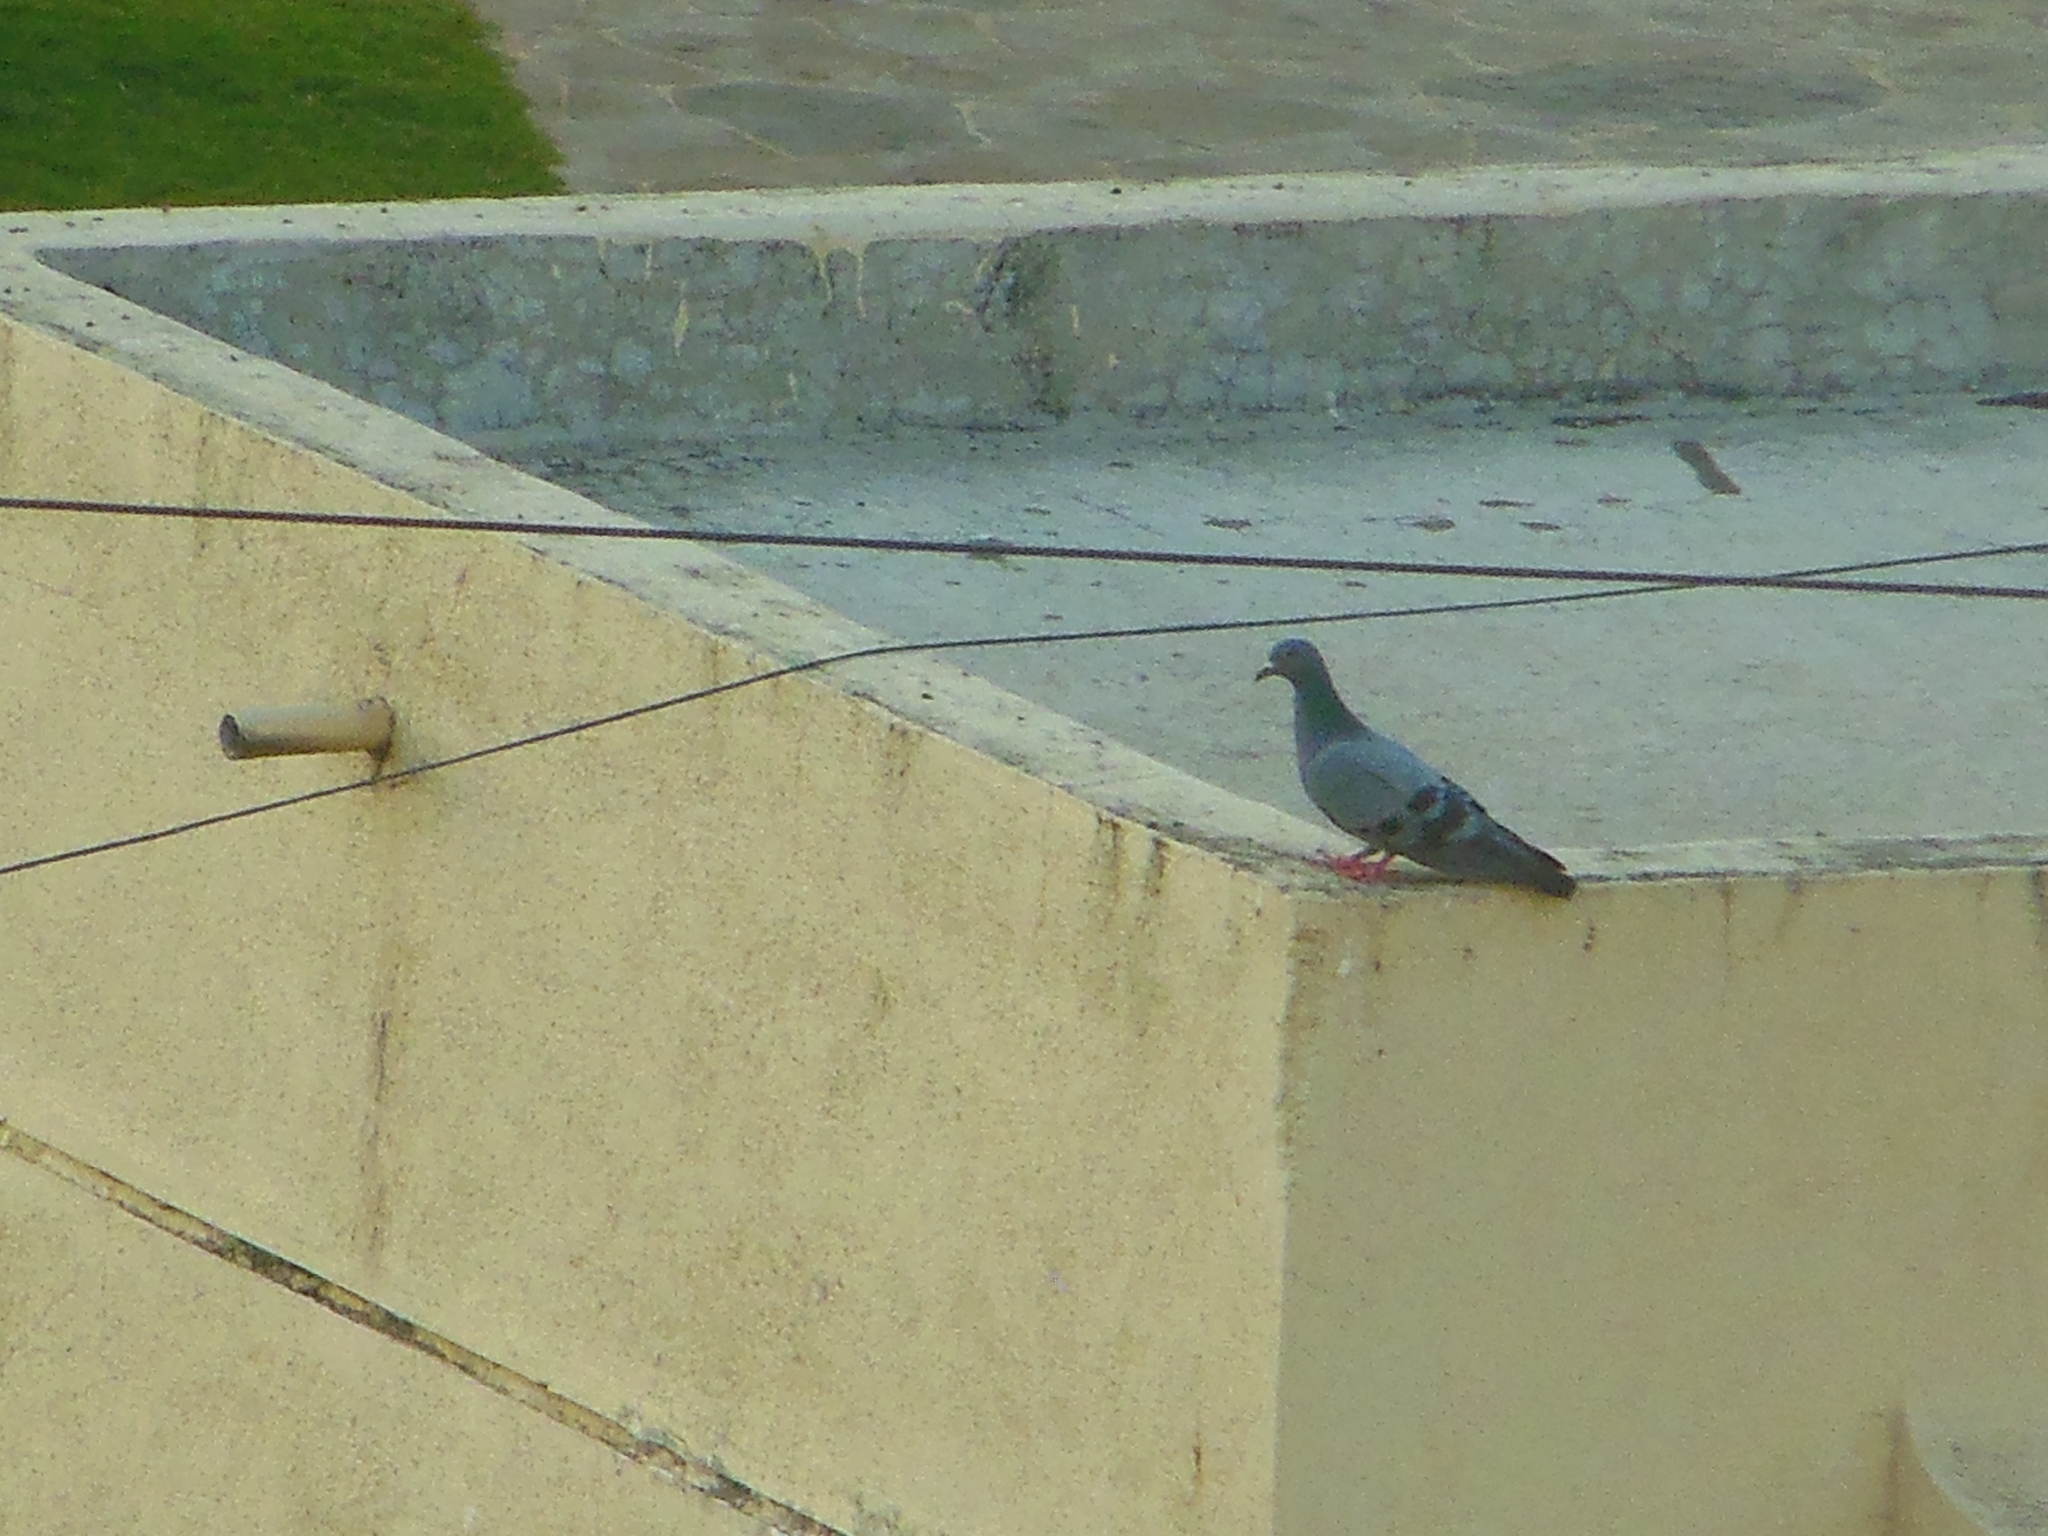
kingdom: Animalia
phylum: Chordata
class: Aves
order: Columbiformes
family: Columbidae
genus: Columba
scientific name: Columba livia
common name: Rock pigeon
